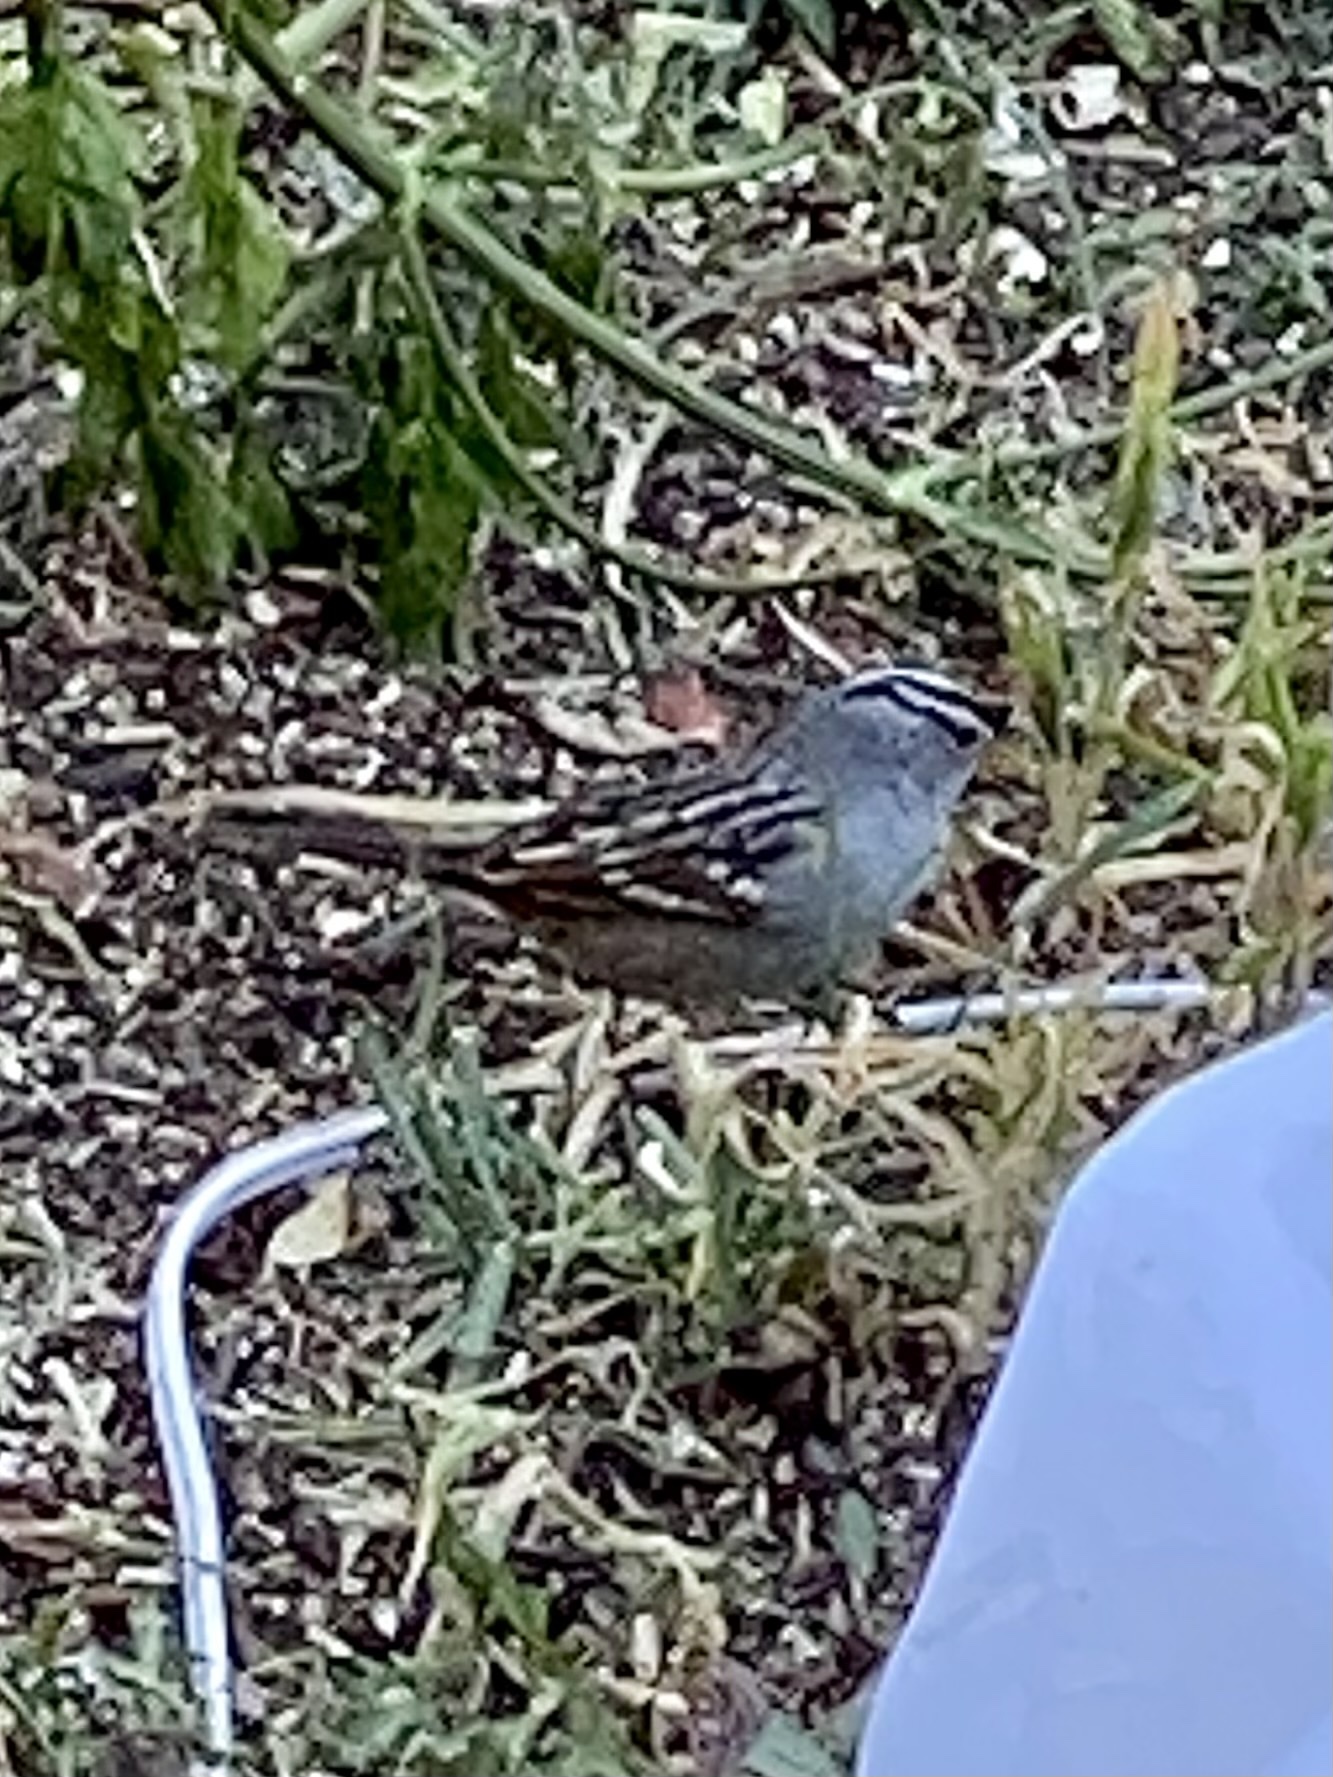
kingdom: Animalia
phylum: Chordata
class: Aves
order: Passeriformes
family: Passerellidae
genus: Zonotrichia
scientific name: Zonotrichia leucophrys
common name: White-crowned sparrow
